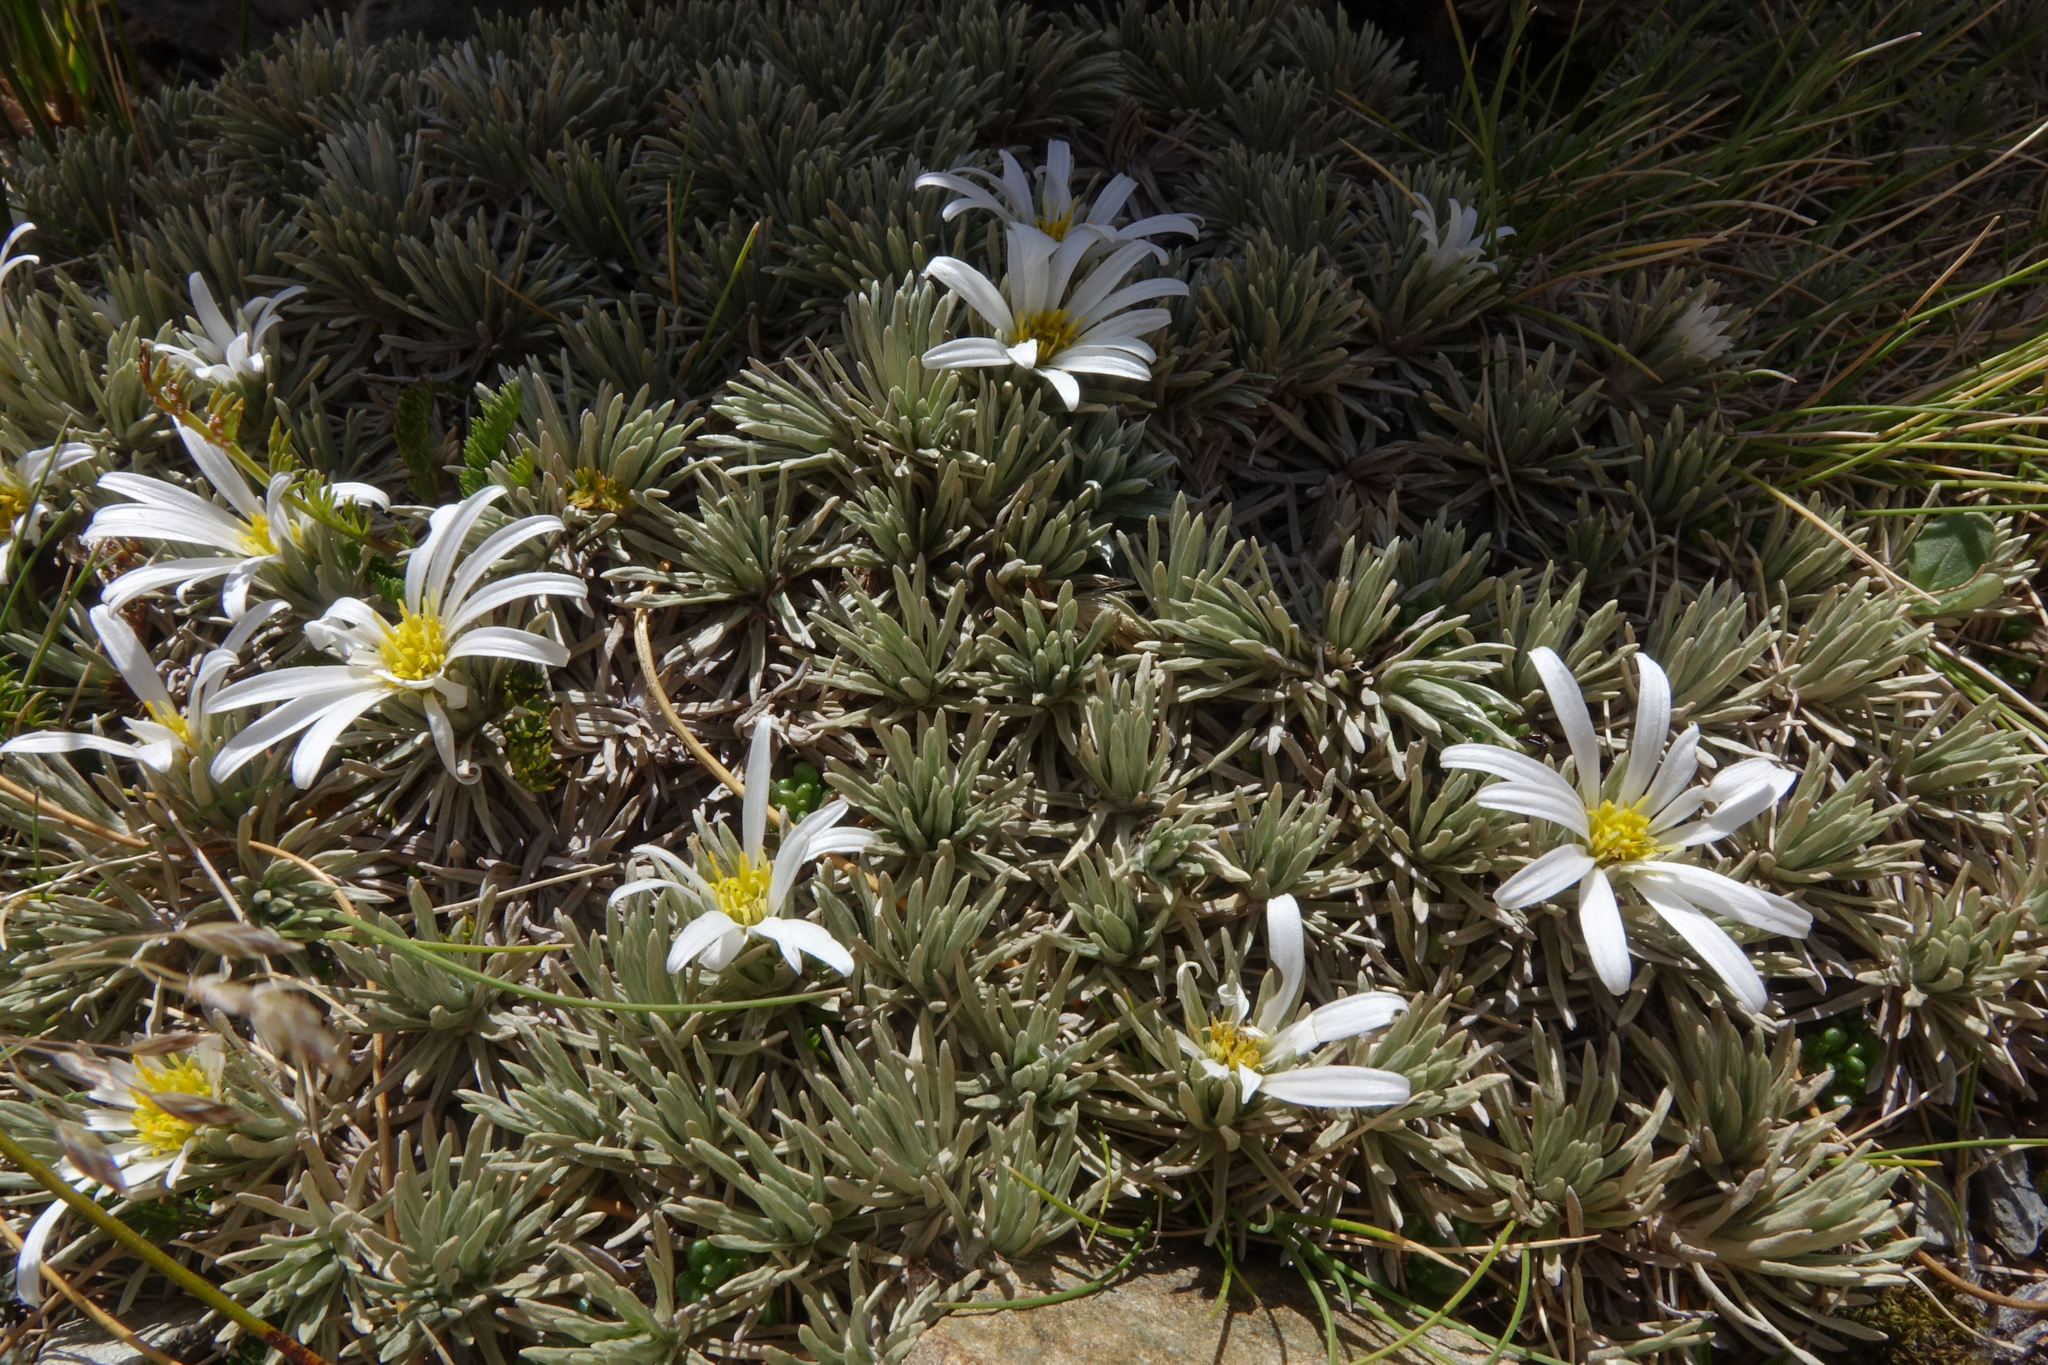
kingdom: Plantae
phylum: Tracheophyta
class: Magnoliopsida
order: Asterales
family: Asteraceae
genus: Celmisia
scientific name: Celmisia sessiliflora
